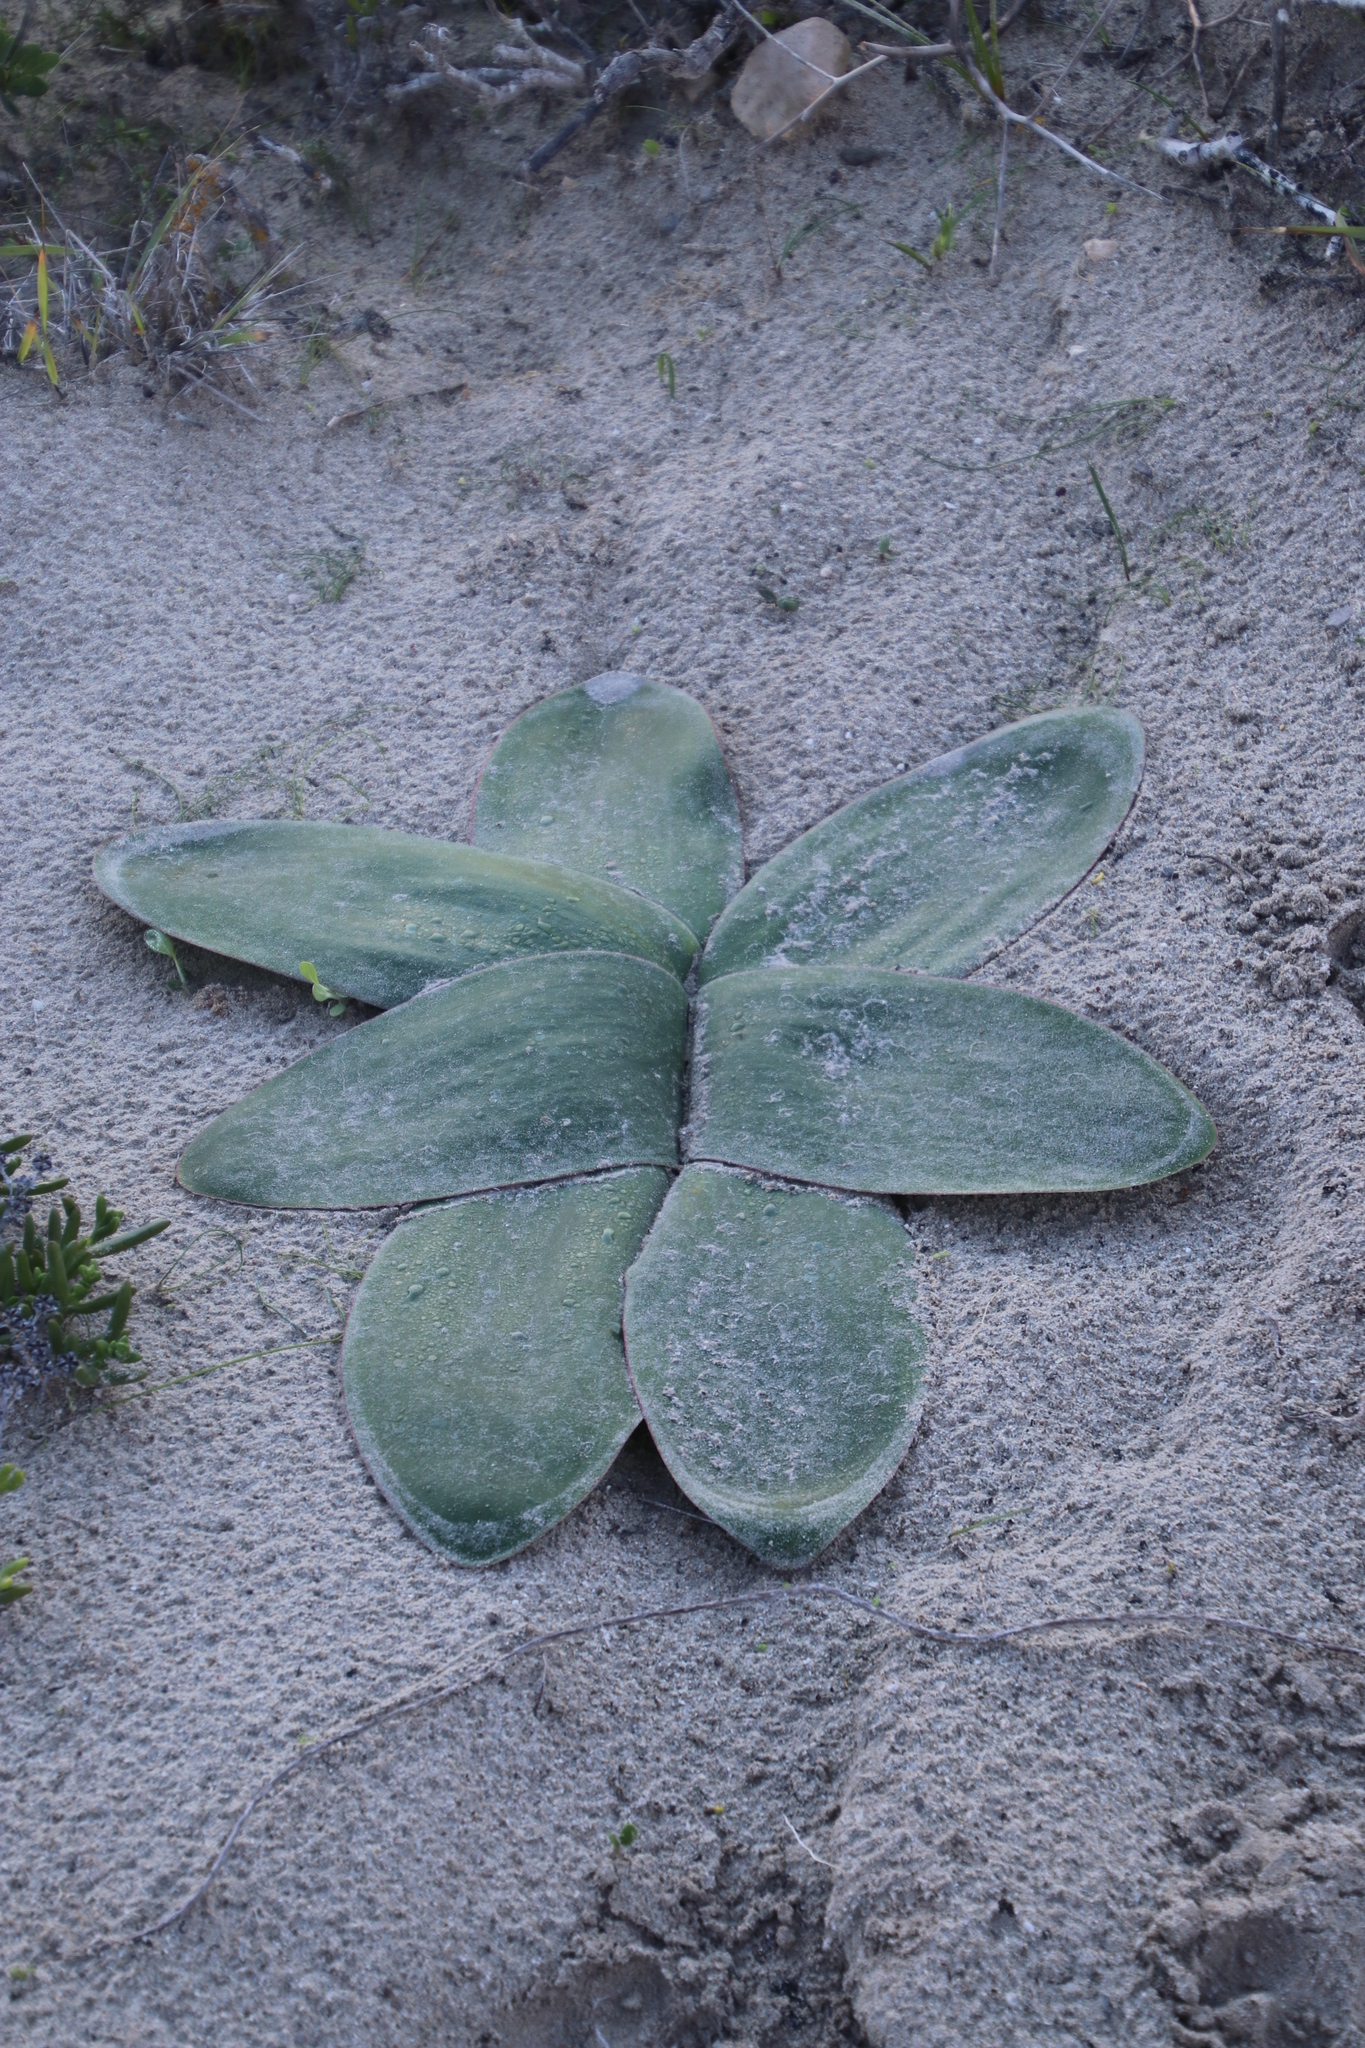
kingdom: Plantae
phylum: Tracheophyta
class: Liliopsida
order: Asparagales
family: Amaryllidaceae
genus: Brunsvigia
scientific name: Brunsvigia orientalis
